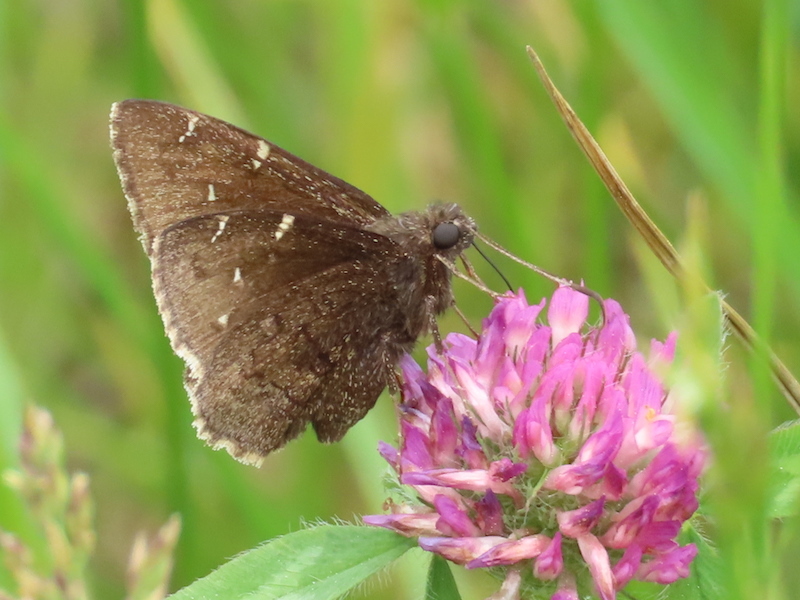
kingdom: Animalia
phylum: Arthropoda
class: Insecta
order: Lepidoptera
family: Hesperiidae
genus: Thorybes
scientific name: Thorybes pylades
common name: Northern cloudywing
